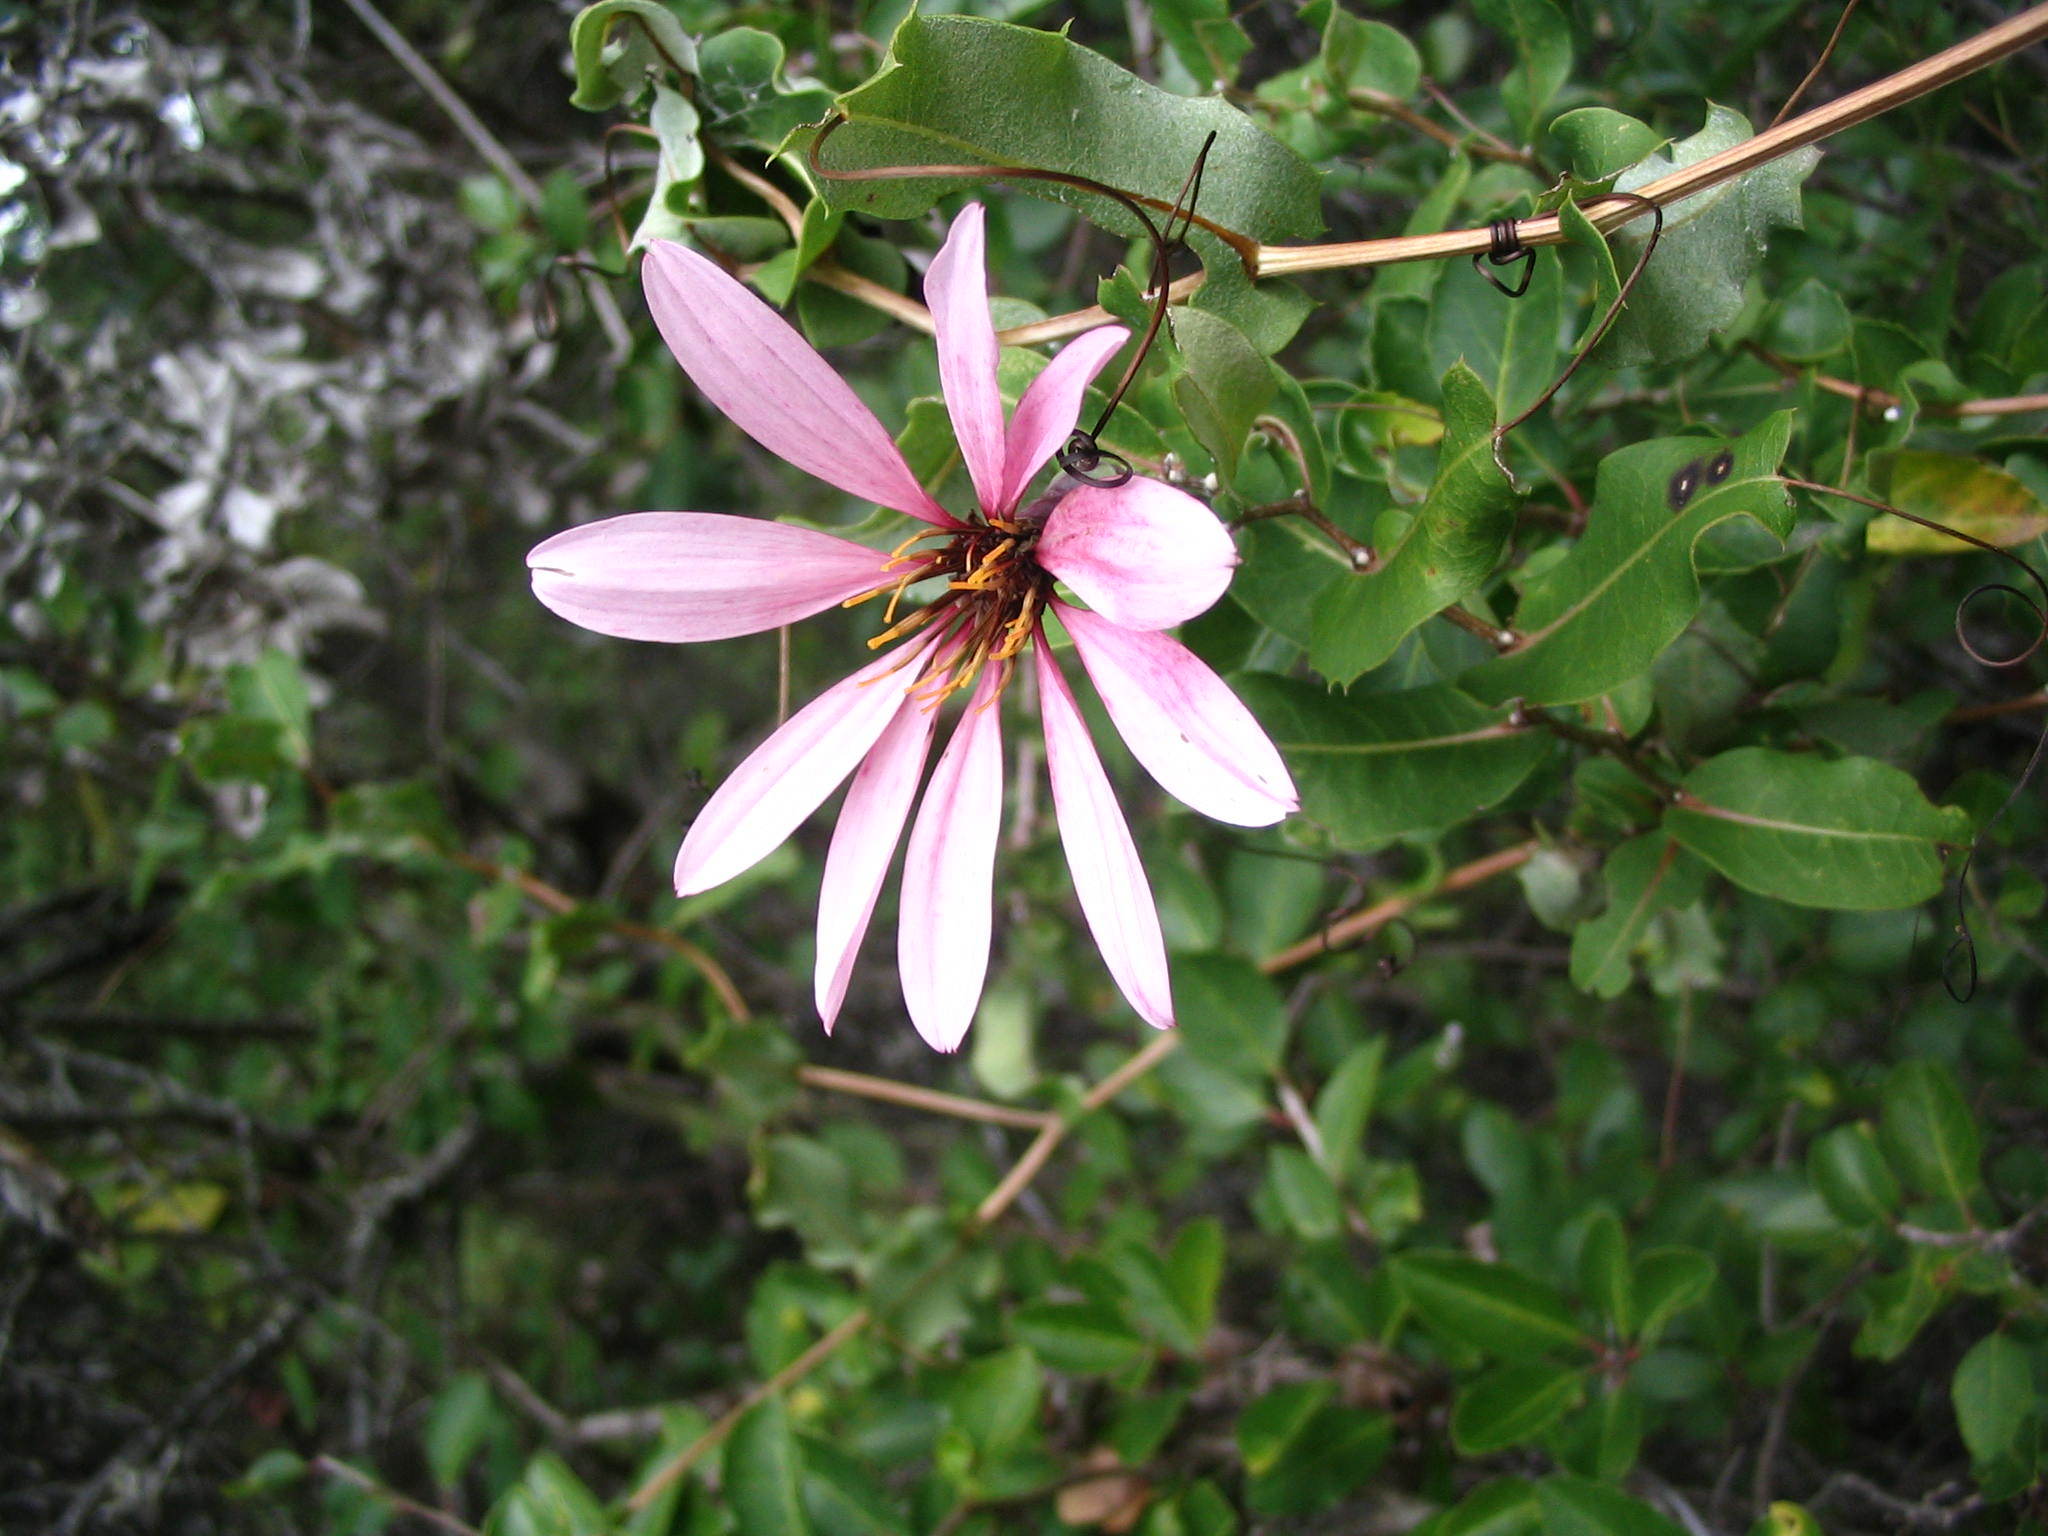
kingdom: Plantae
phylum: Tracheophyta
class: Magnoliopsida
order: Asterales
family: Asteraceae
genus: Mutisia
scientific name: Mutisia spinosa
